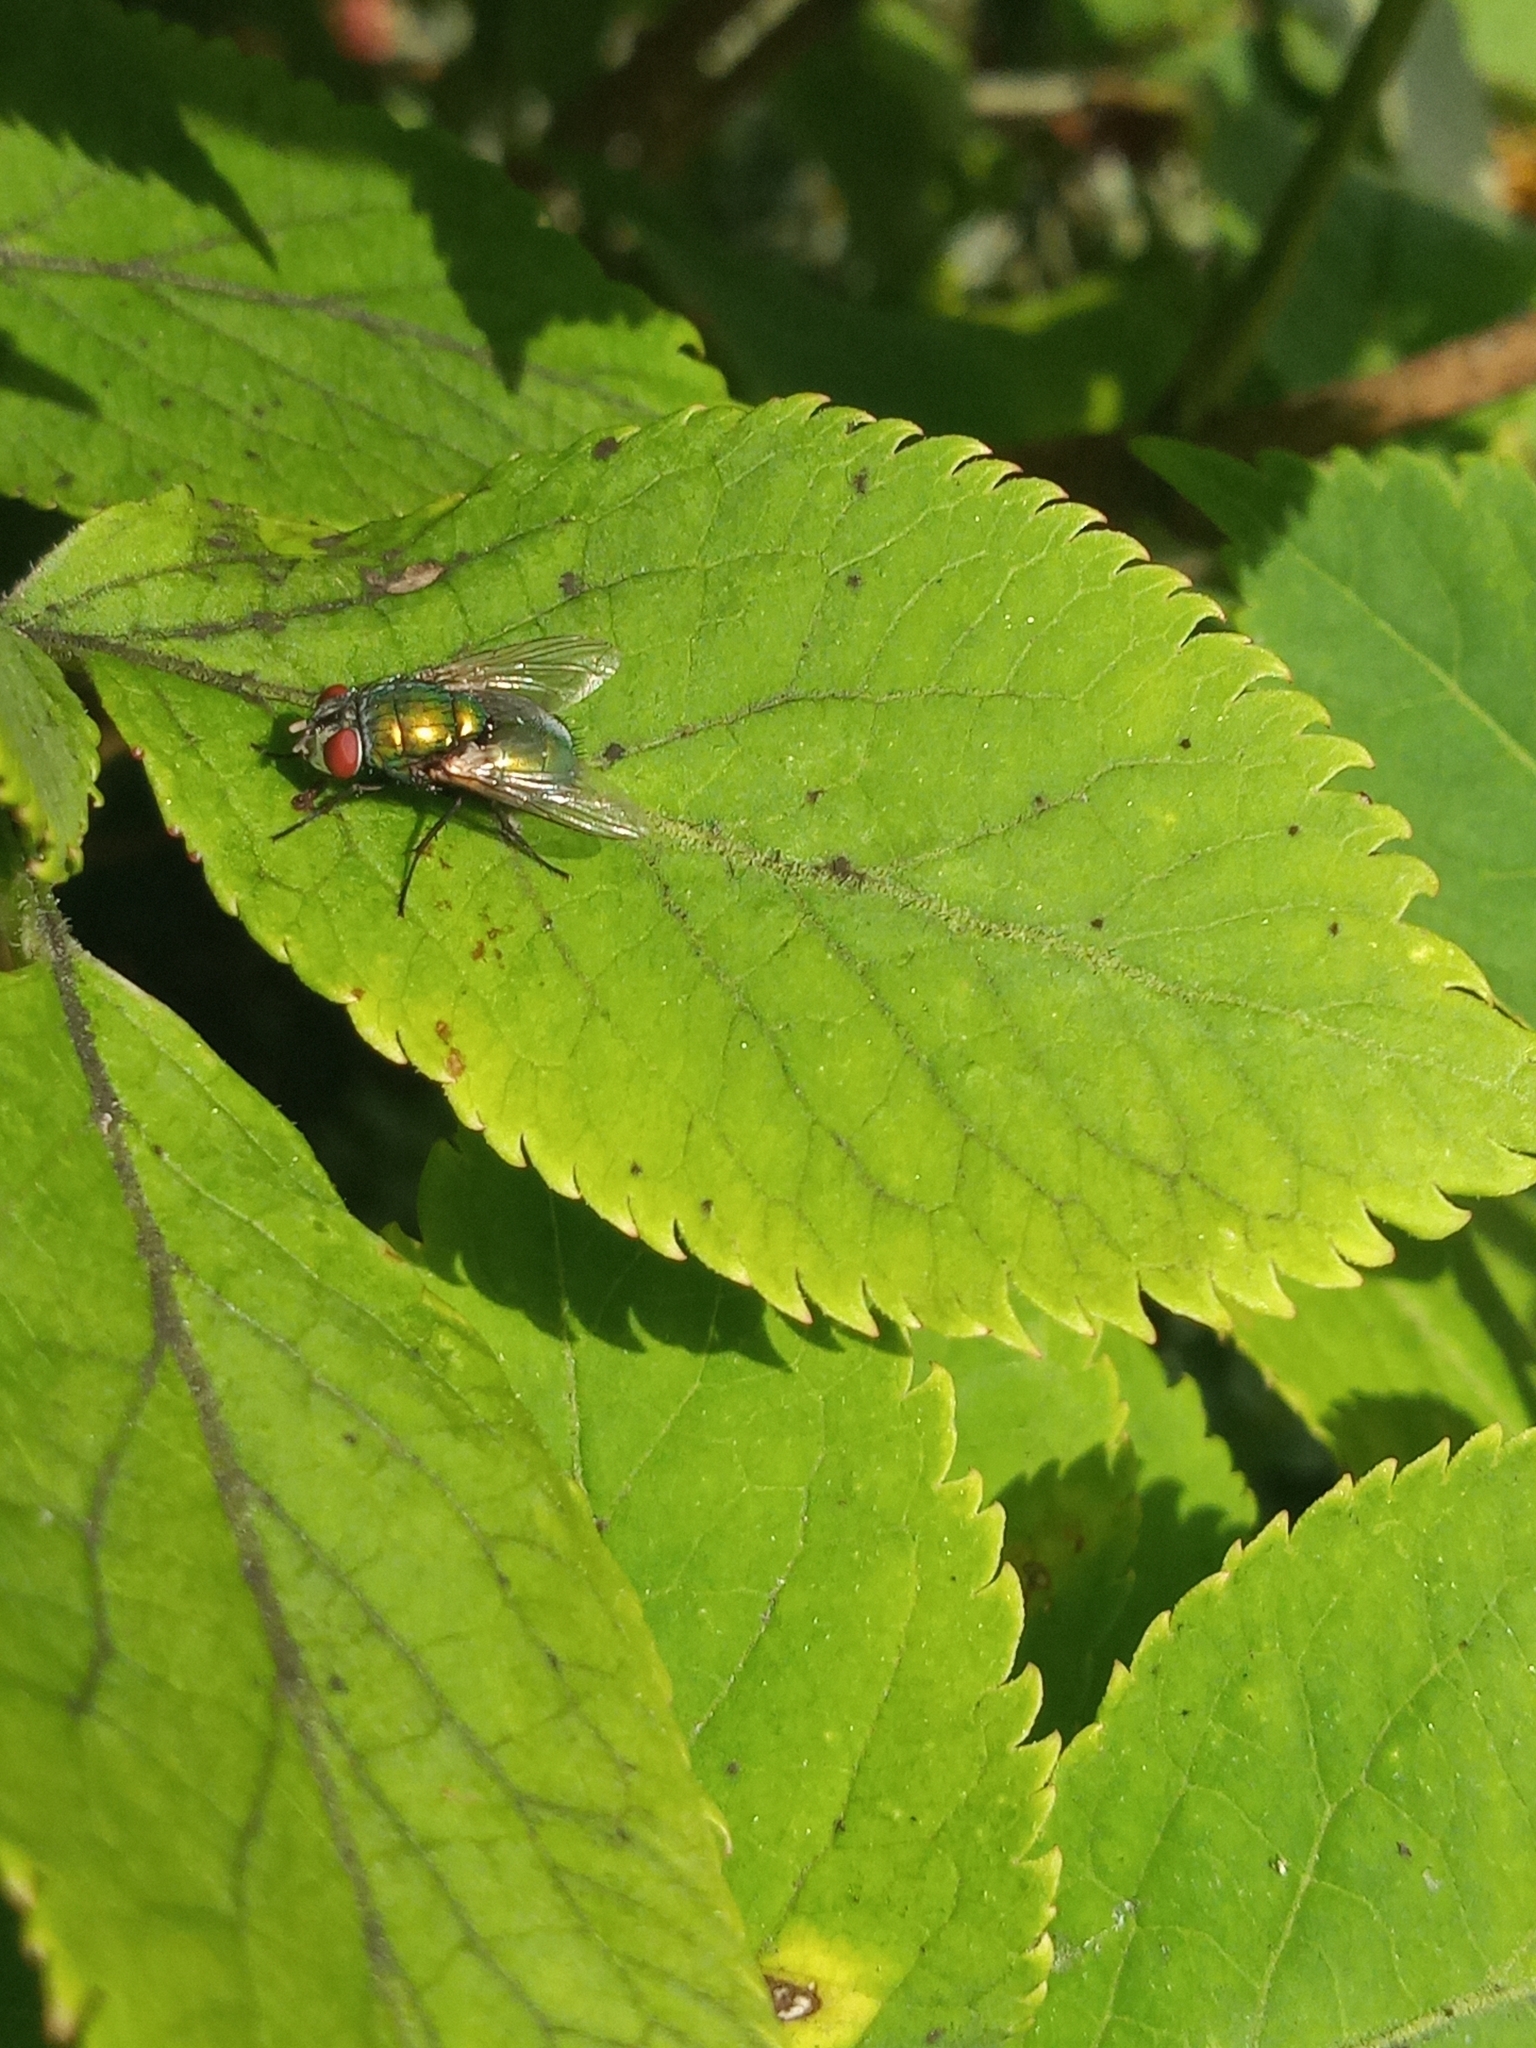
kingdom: Animalia
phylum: Arthropoda
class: Insecta
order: Diptera
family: Calliphoridae
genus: Lucilia
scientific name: Lucilia sericata
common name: Blow fly
